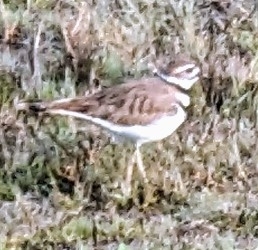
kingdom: Animalia
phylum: Chordata
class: Aves
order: Charadriiformes
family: Charadriidae
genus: Charadrius
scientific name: Charadrius vociferus
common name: Killdeer
